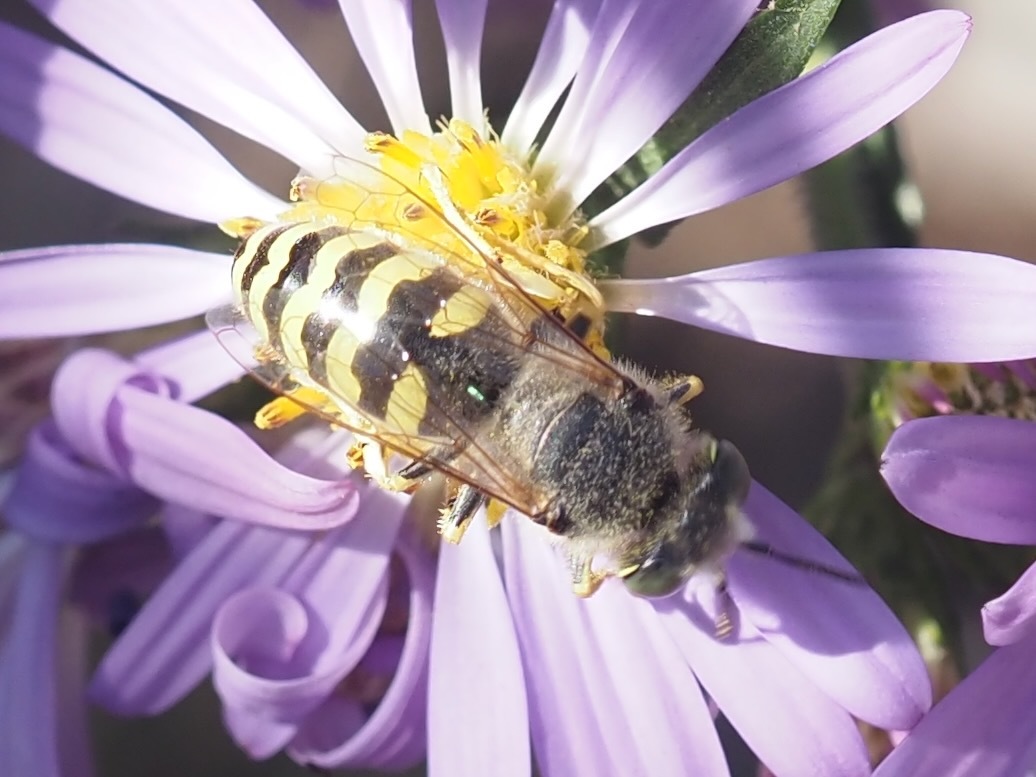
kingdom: Animalia
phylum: Arthropoda
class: Insecta
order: Hymenoptera
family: Crabronidae
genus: Bembix
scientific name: Bembix americana
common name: American sand wasp
